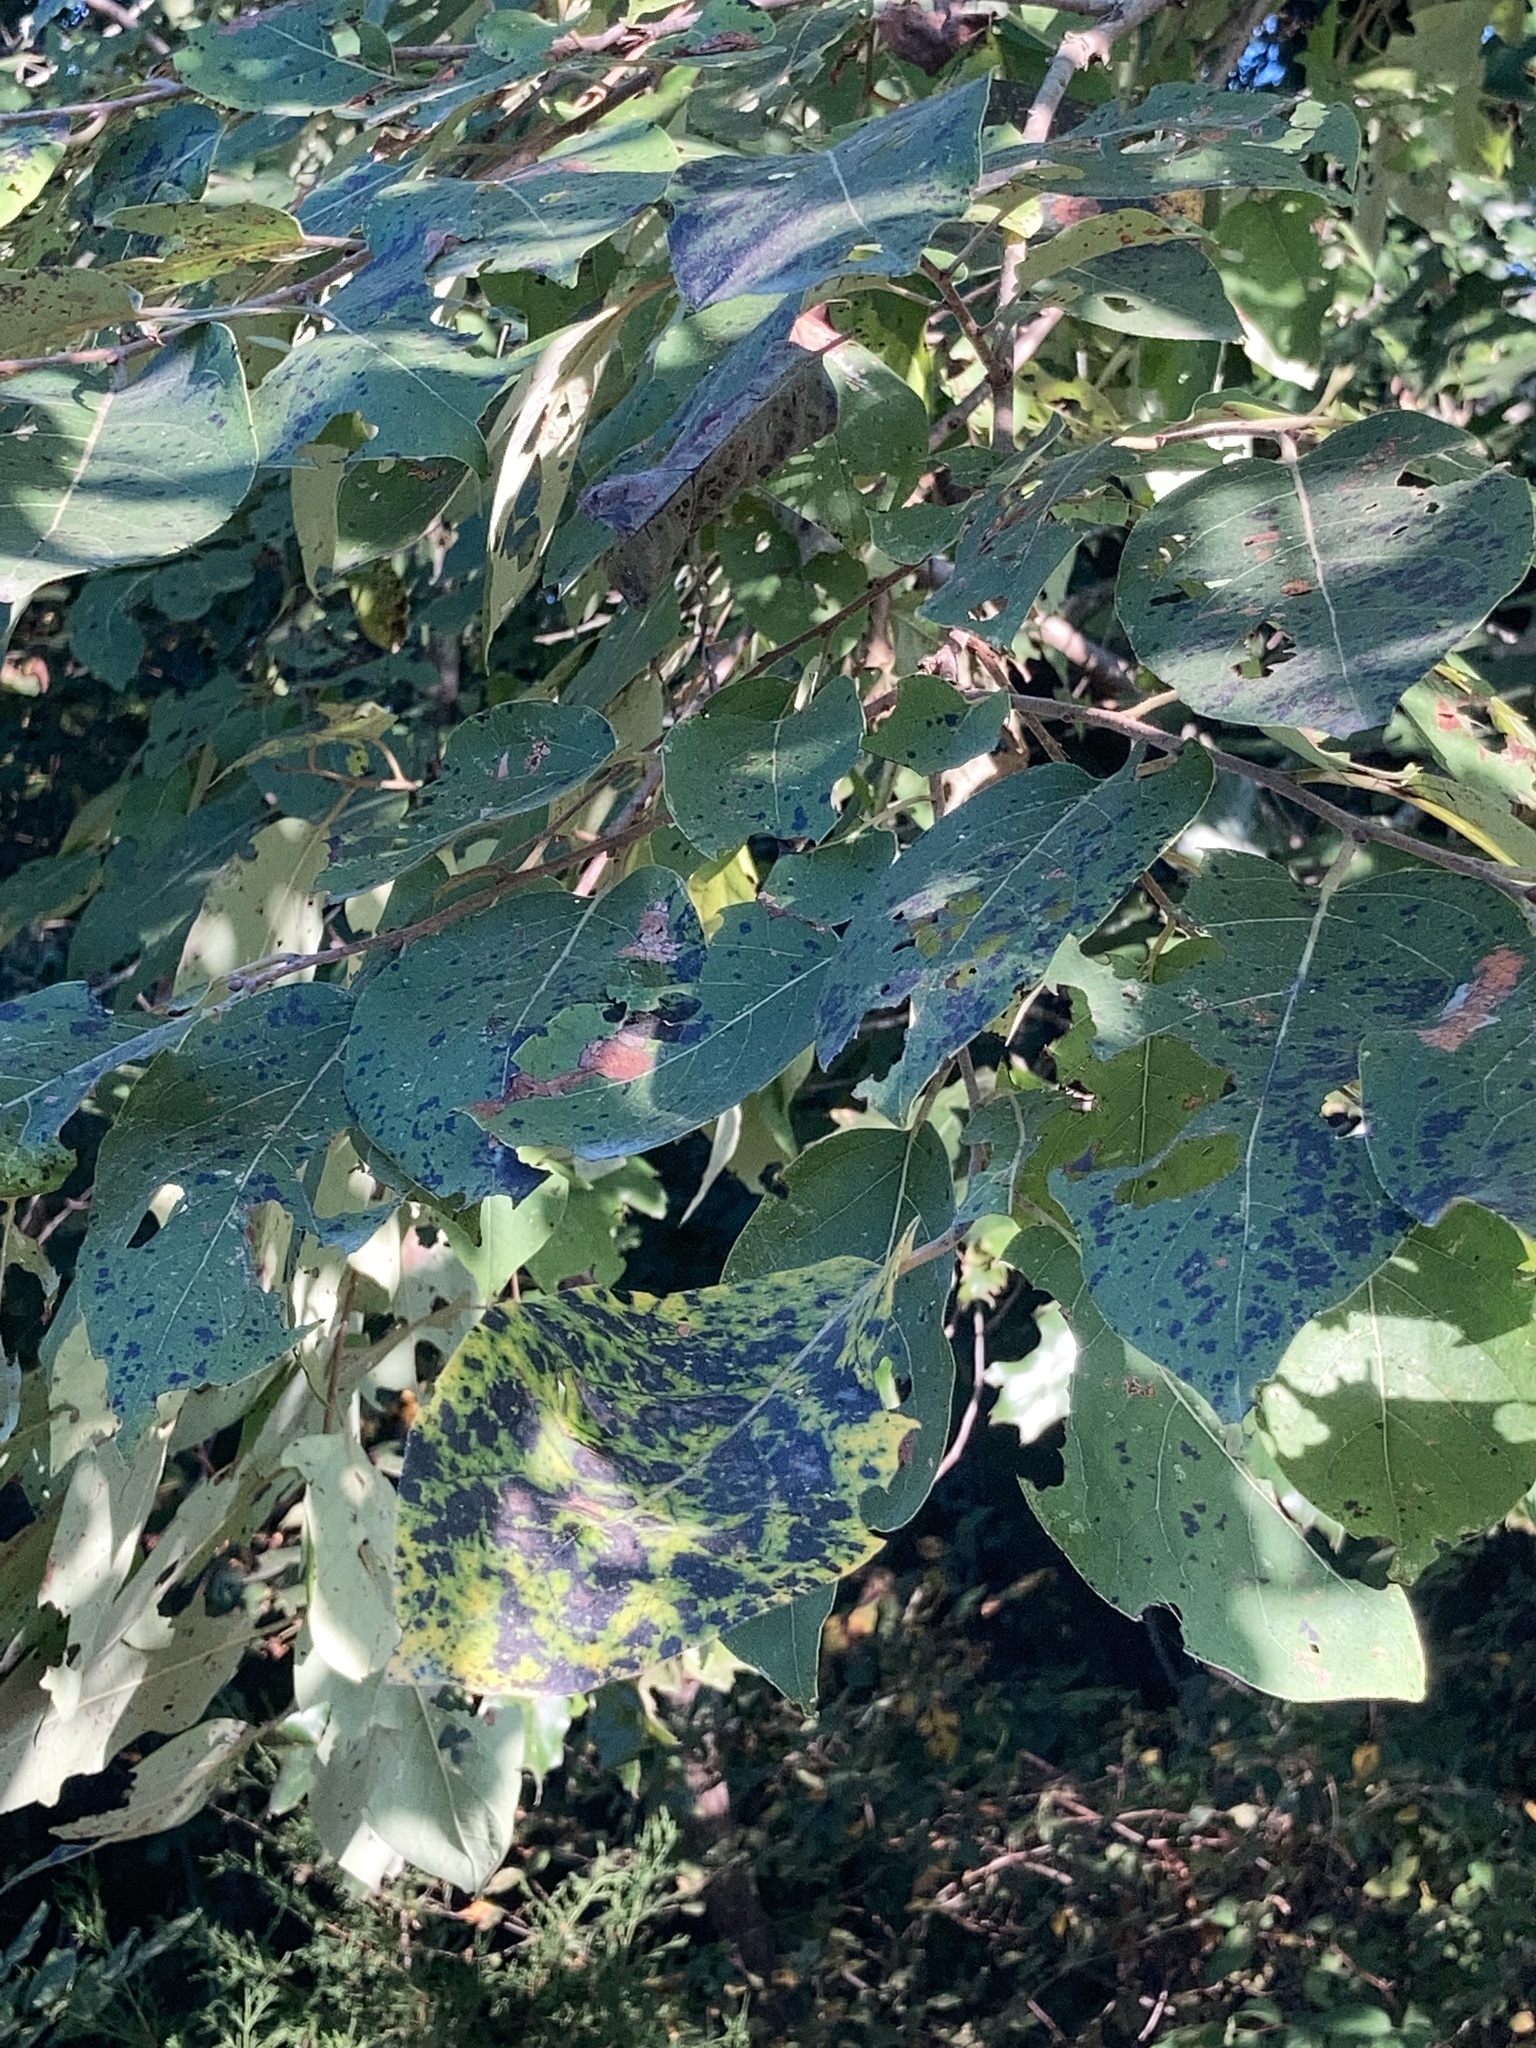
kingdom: Plantae
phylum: Tracheophyta
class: Magnoliopsida
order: Ericales
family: Ebenaceae
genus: Diospyros
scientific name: Diospyros virginiana
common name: Persimmon
